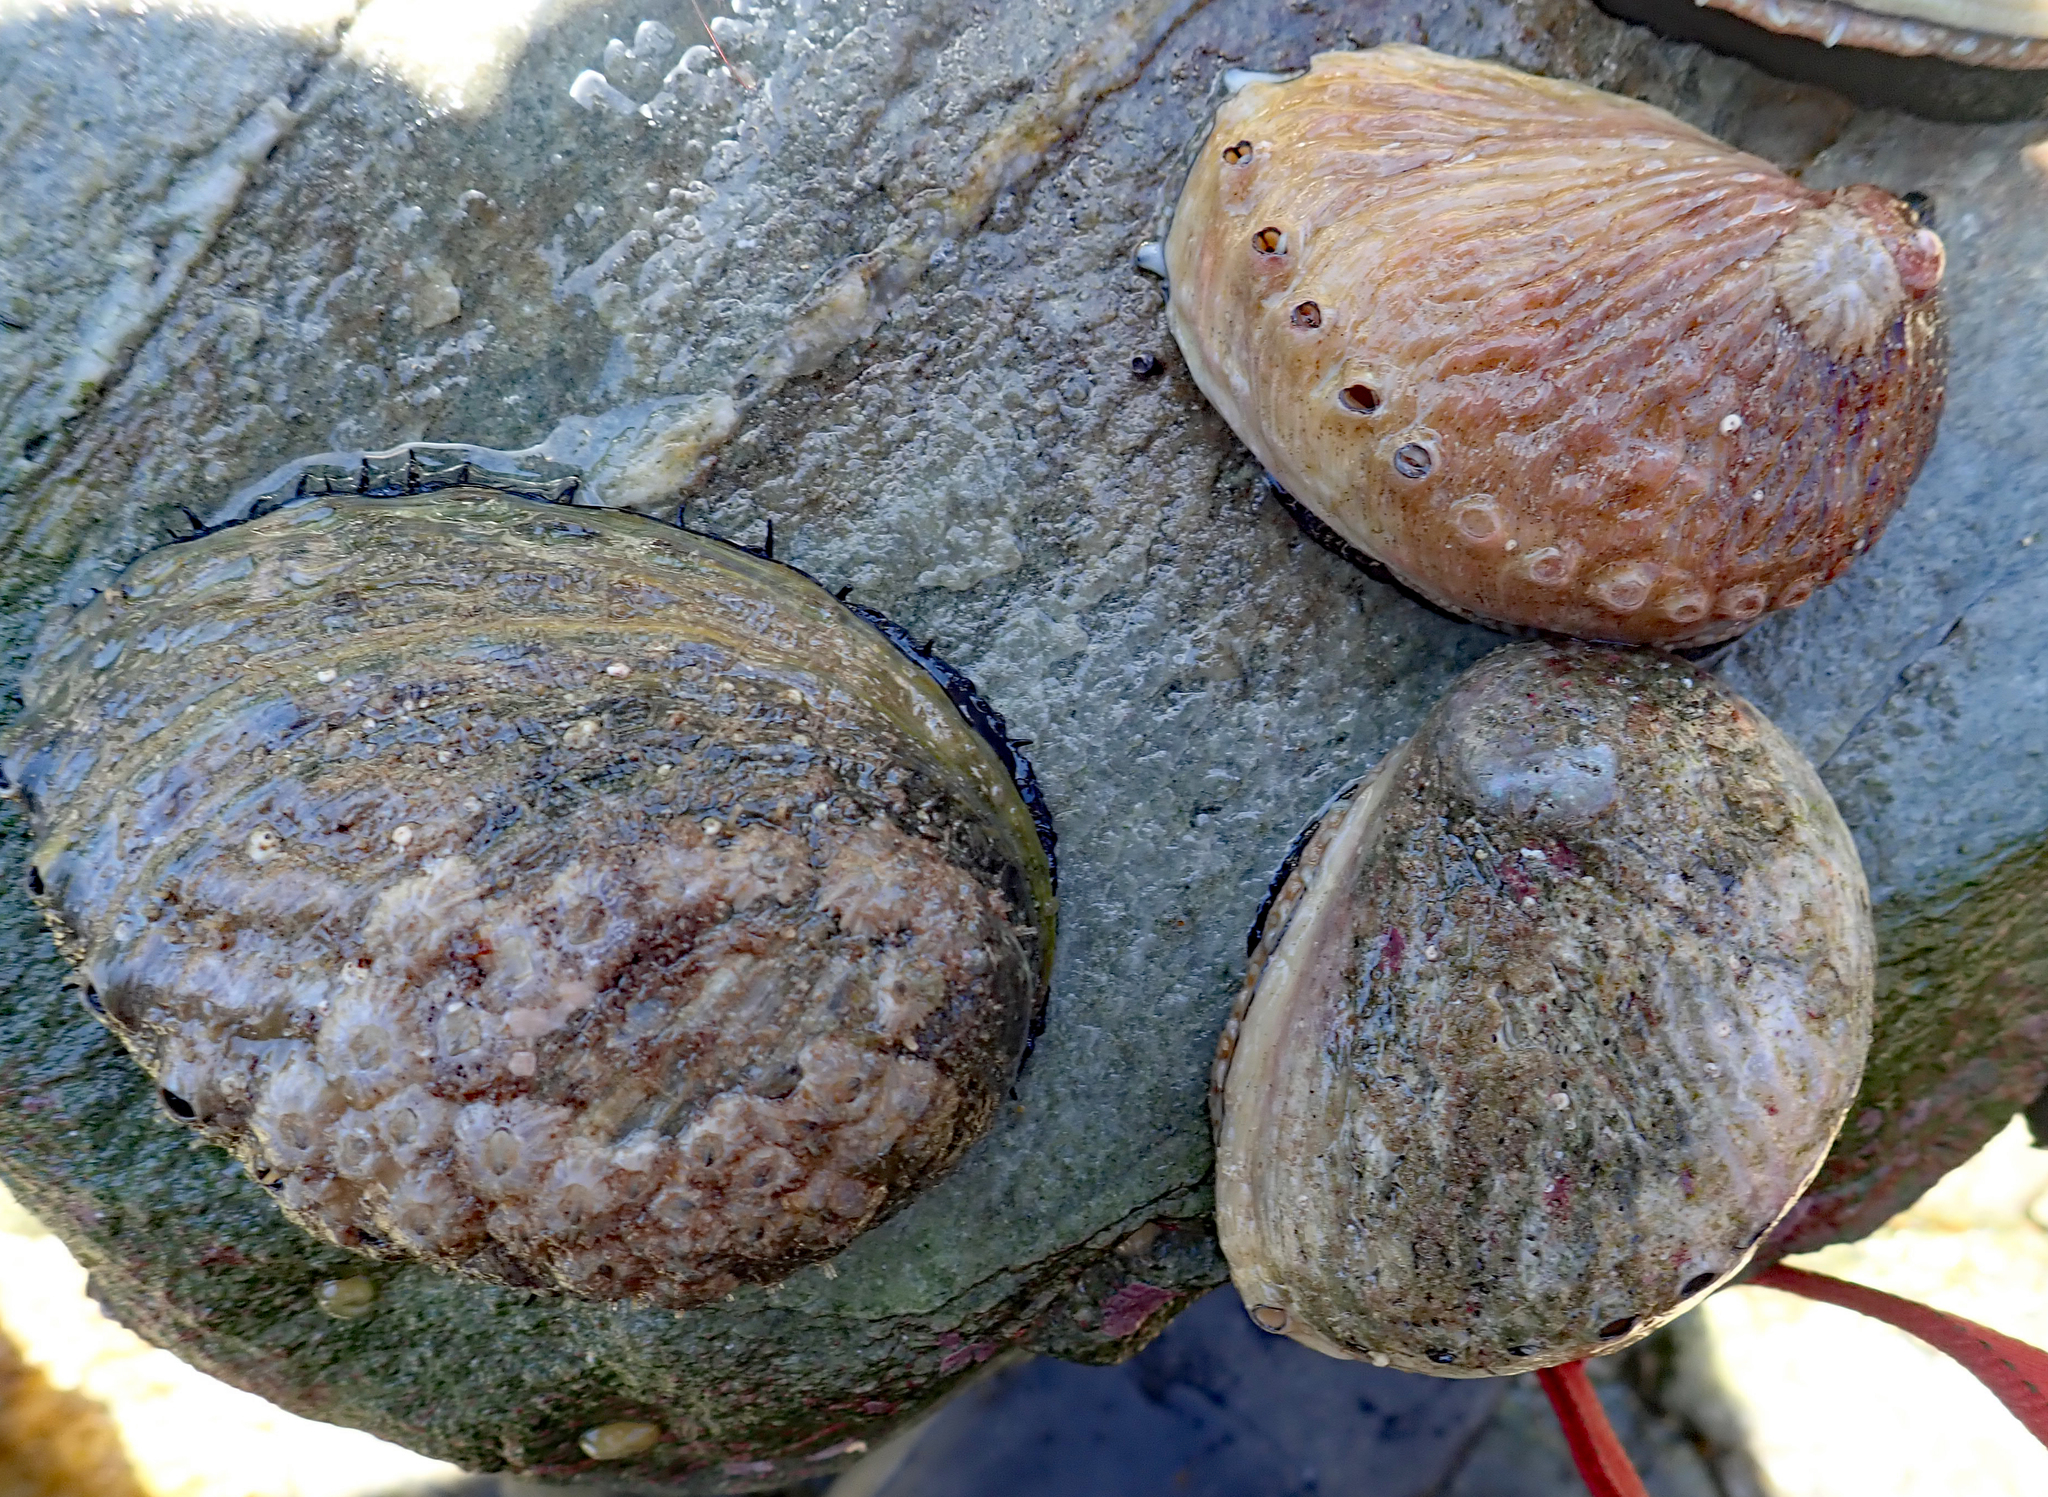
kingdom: Animalia
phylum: Mollusca
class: Gastropoda
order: Lepetellida
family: Haliotidae
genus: Haliotis
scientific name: Haliotis australis
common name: Silver abalone
